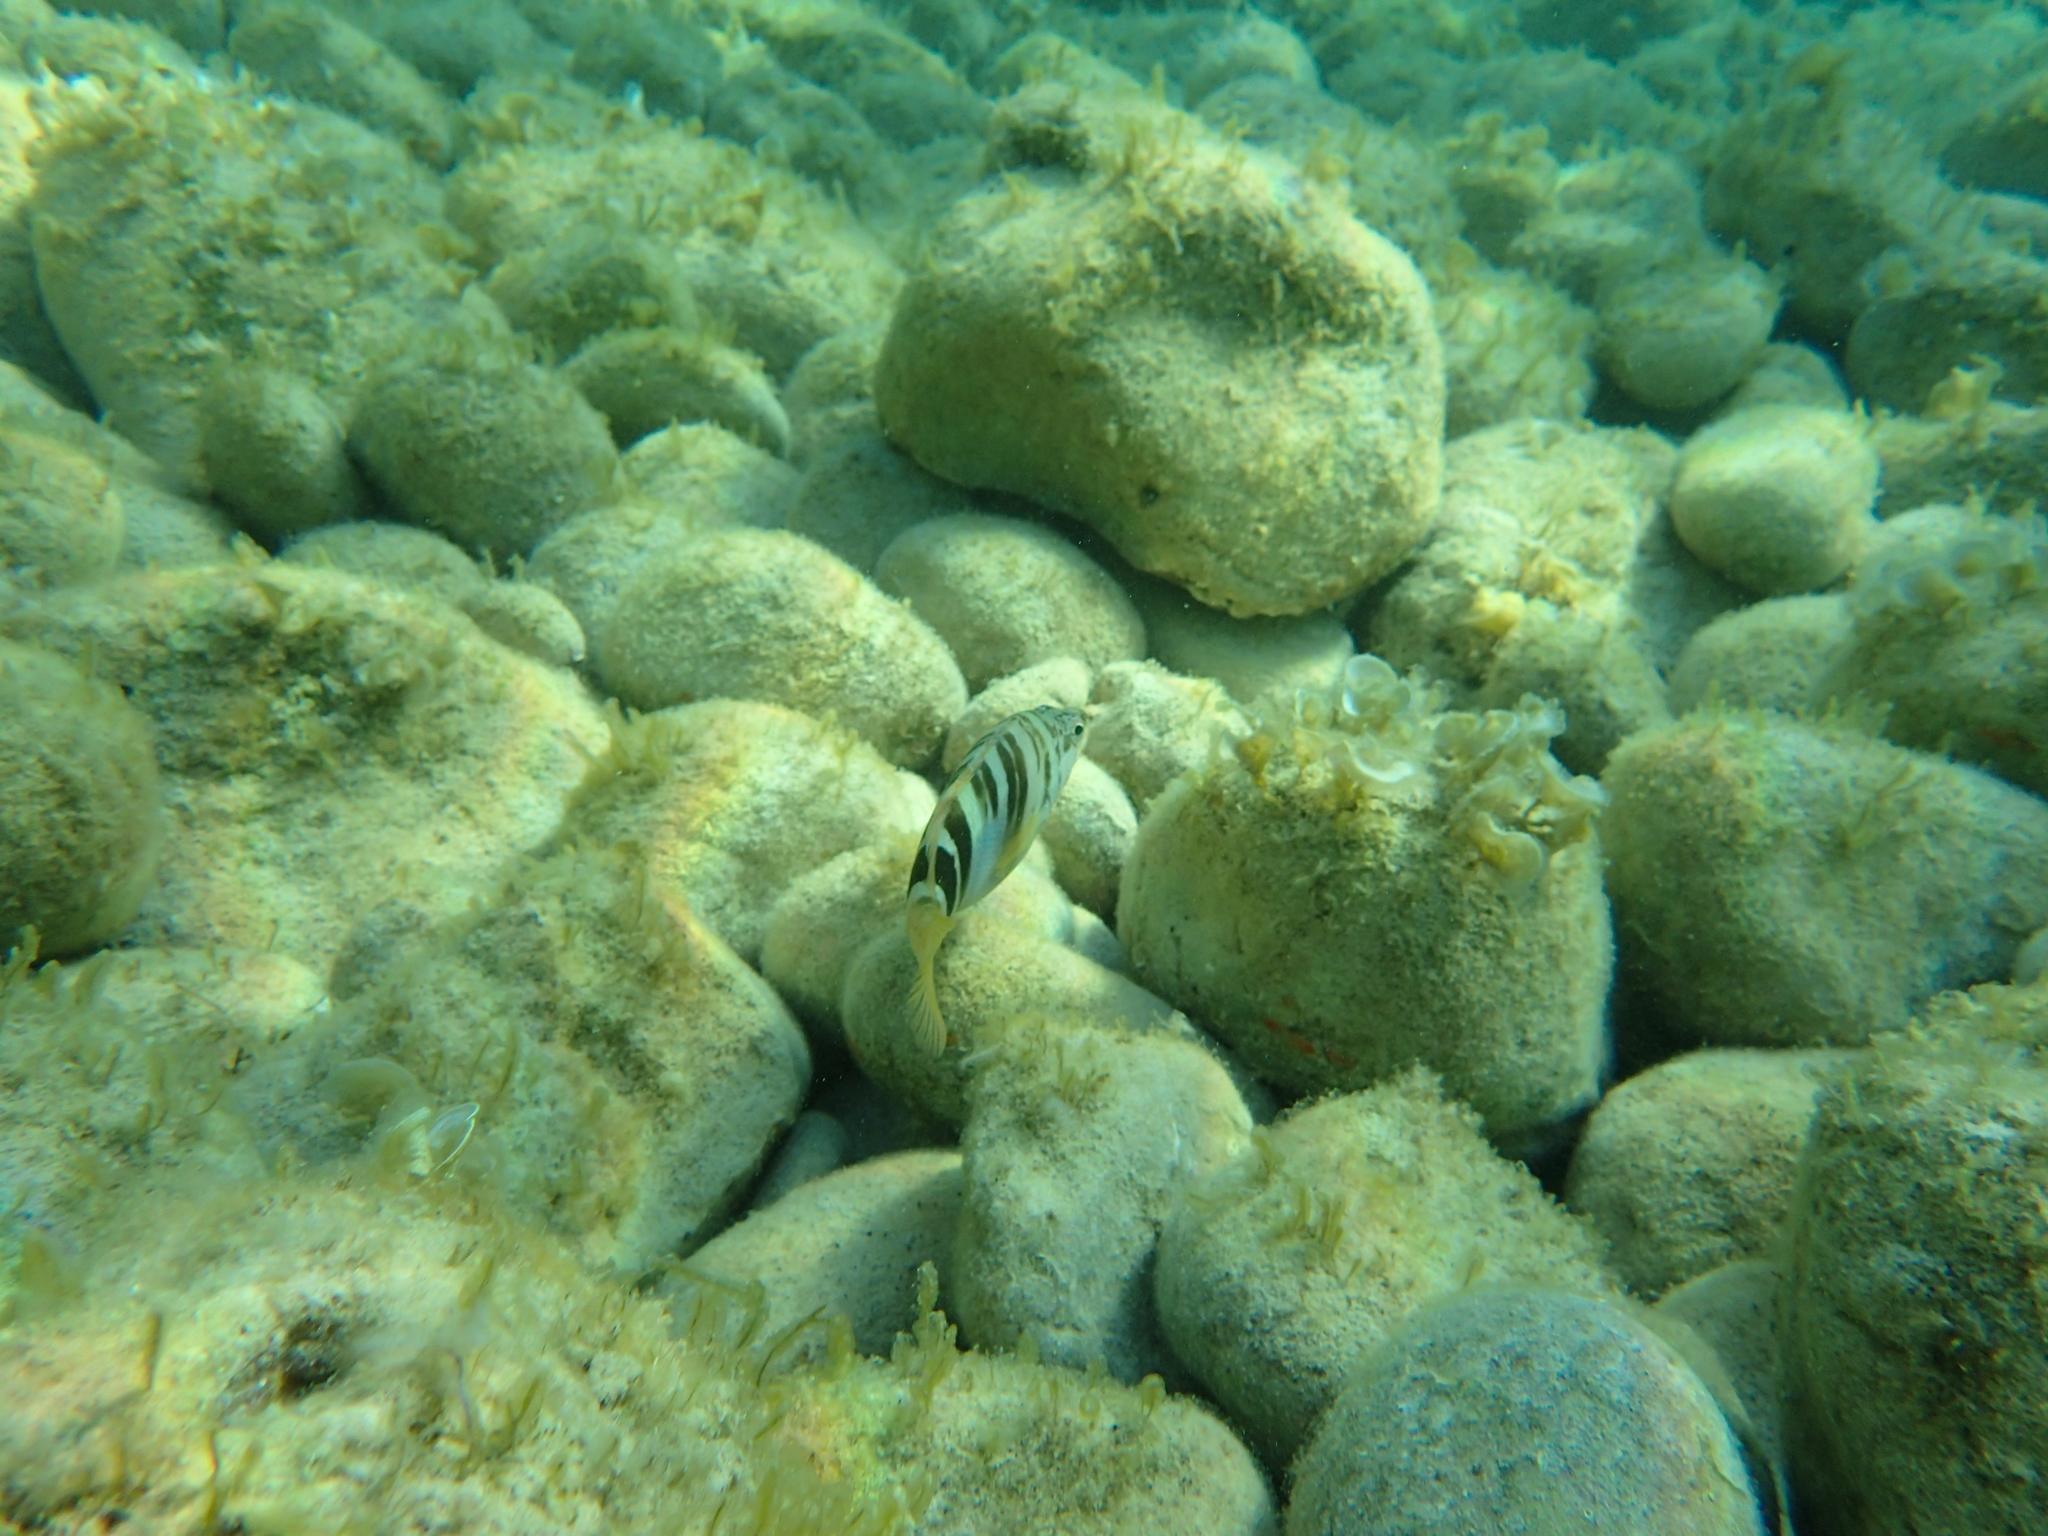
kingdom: Animalia
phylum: Chordata
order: Perciformes
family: Serranidae
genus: Serranus
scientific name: Serranus scriba
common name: Painted comber
